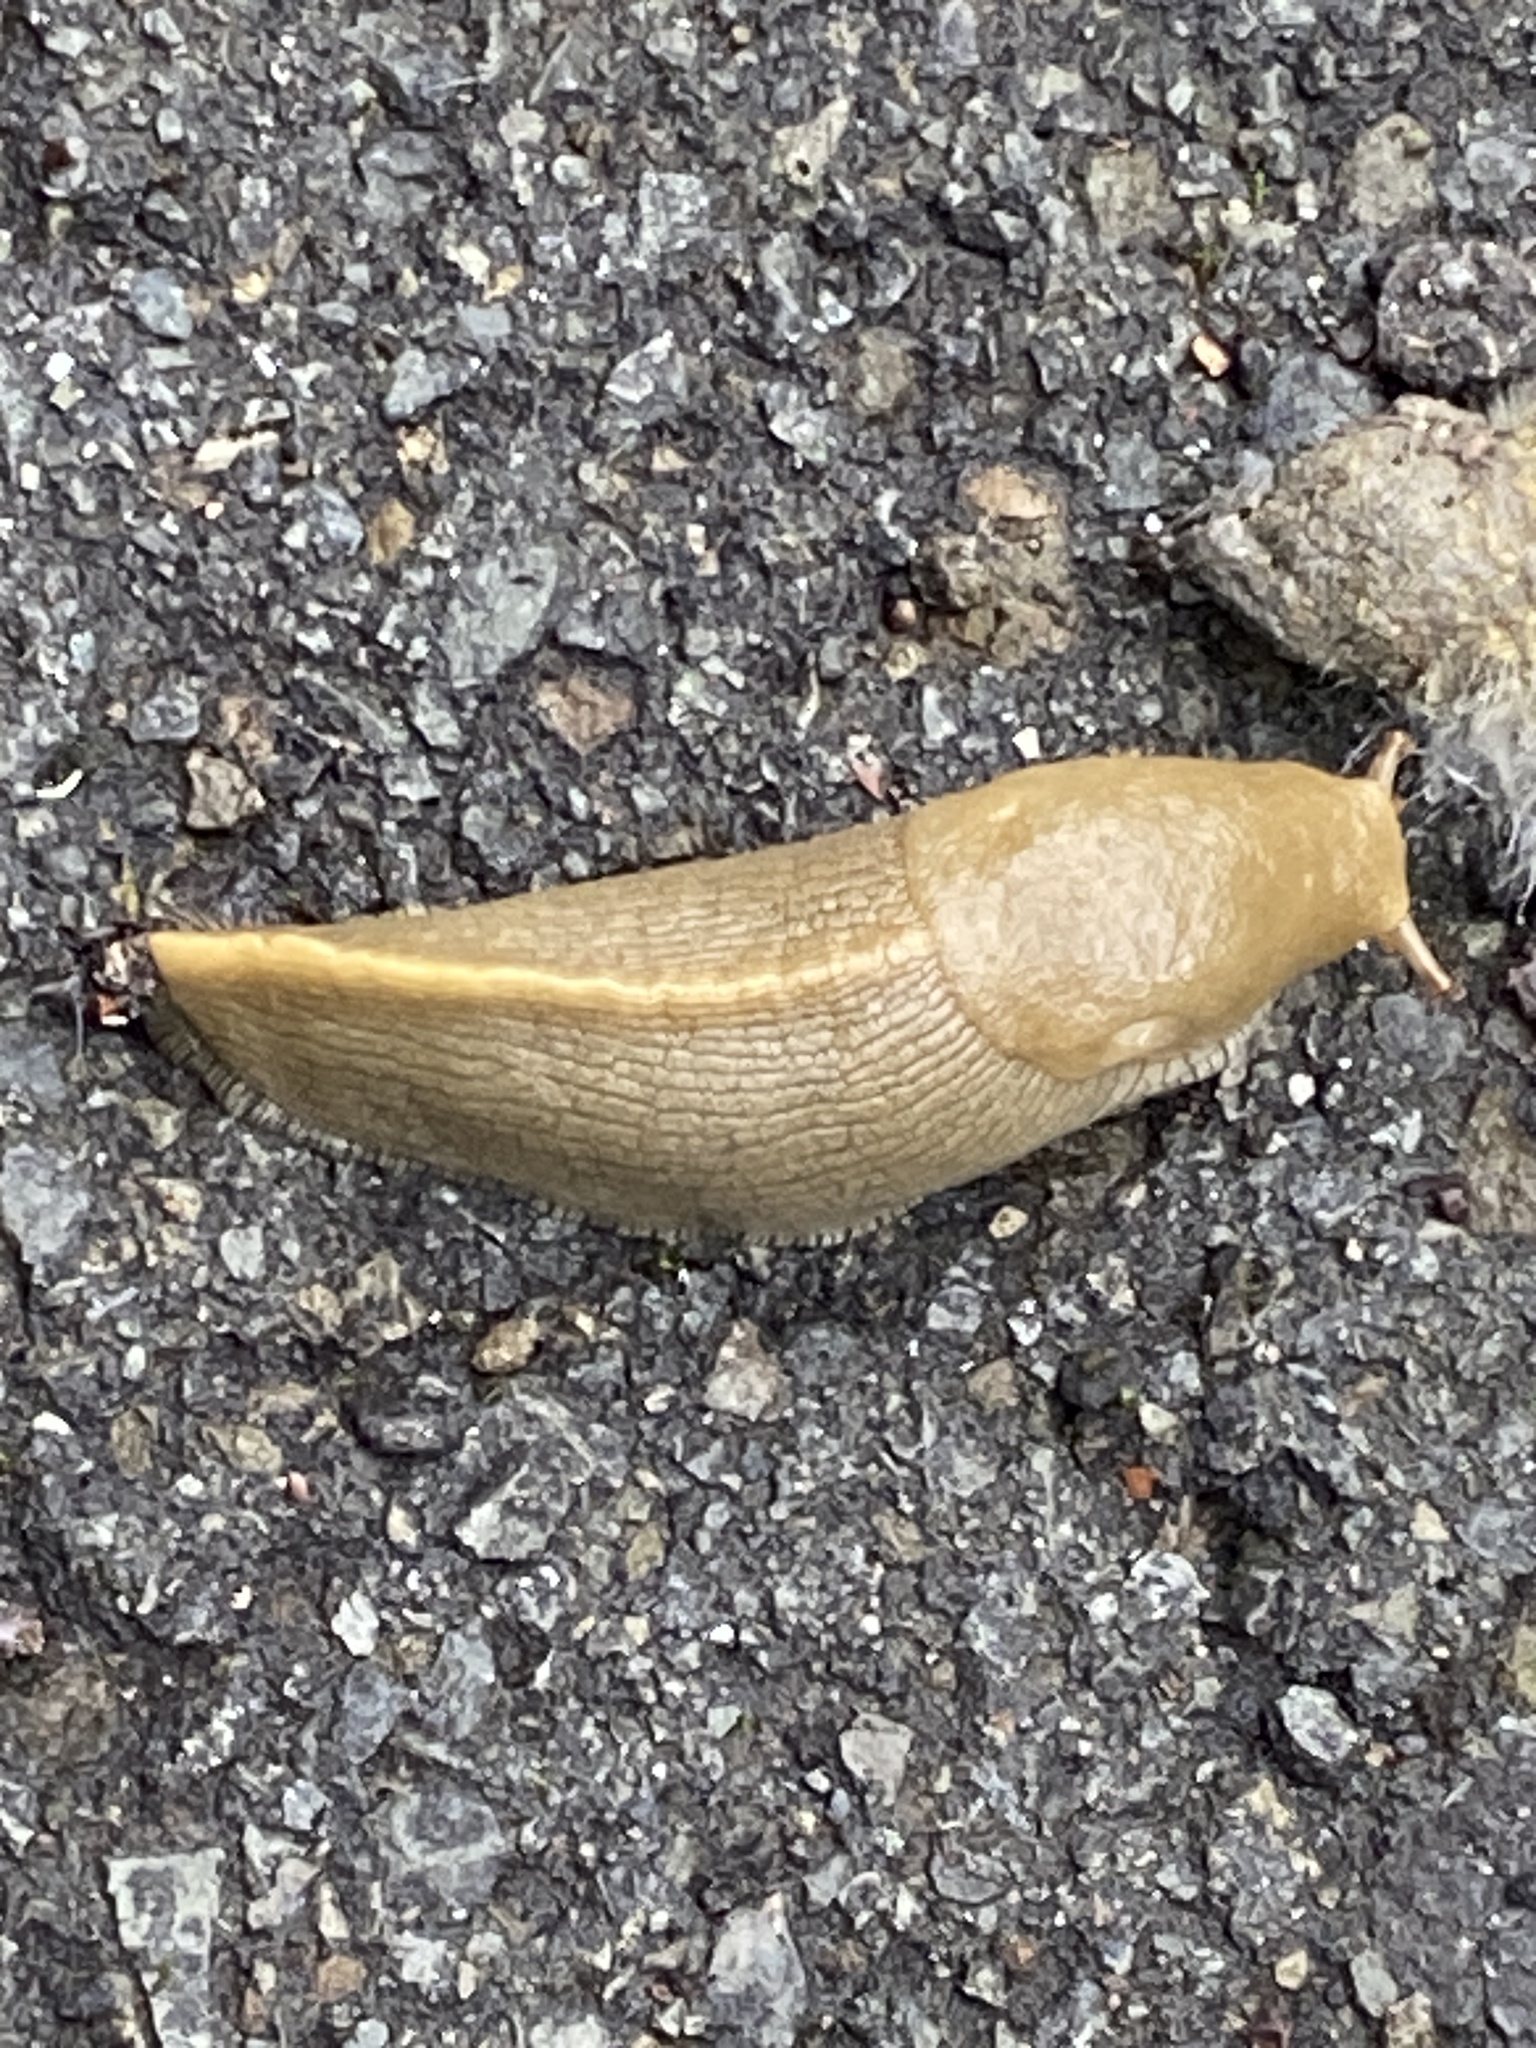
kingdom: Animalia
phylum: Mollusca
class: Gastropoda
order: Stylommatophora
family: Ariolimacidae
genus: Ariolimax
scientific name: Ariolimax buttoni
